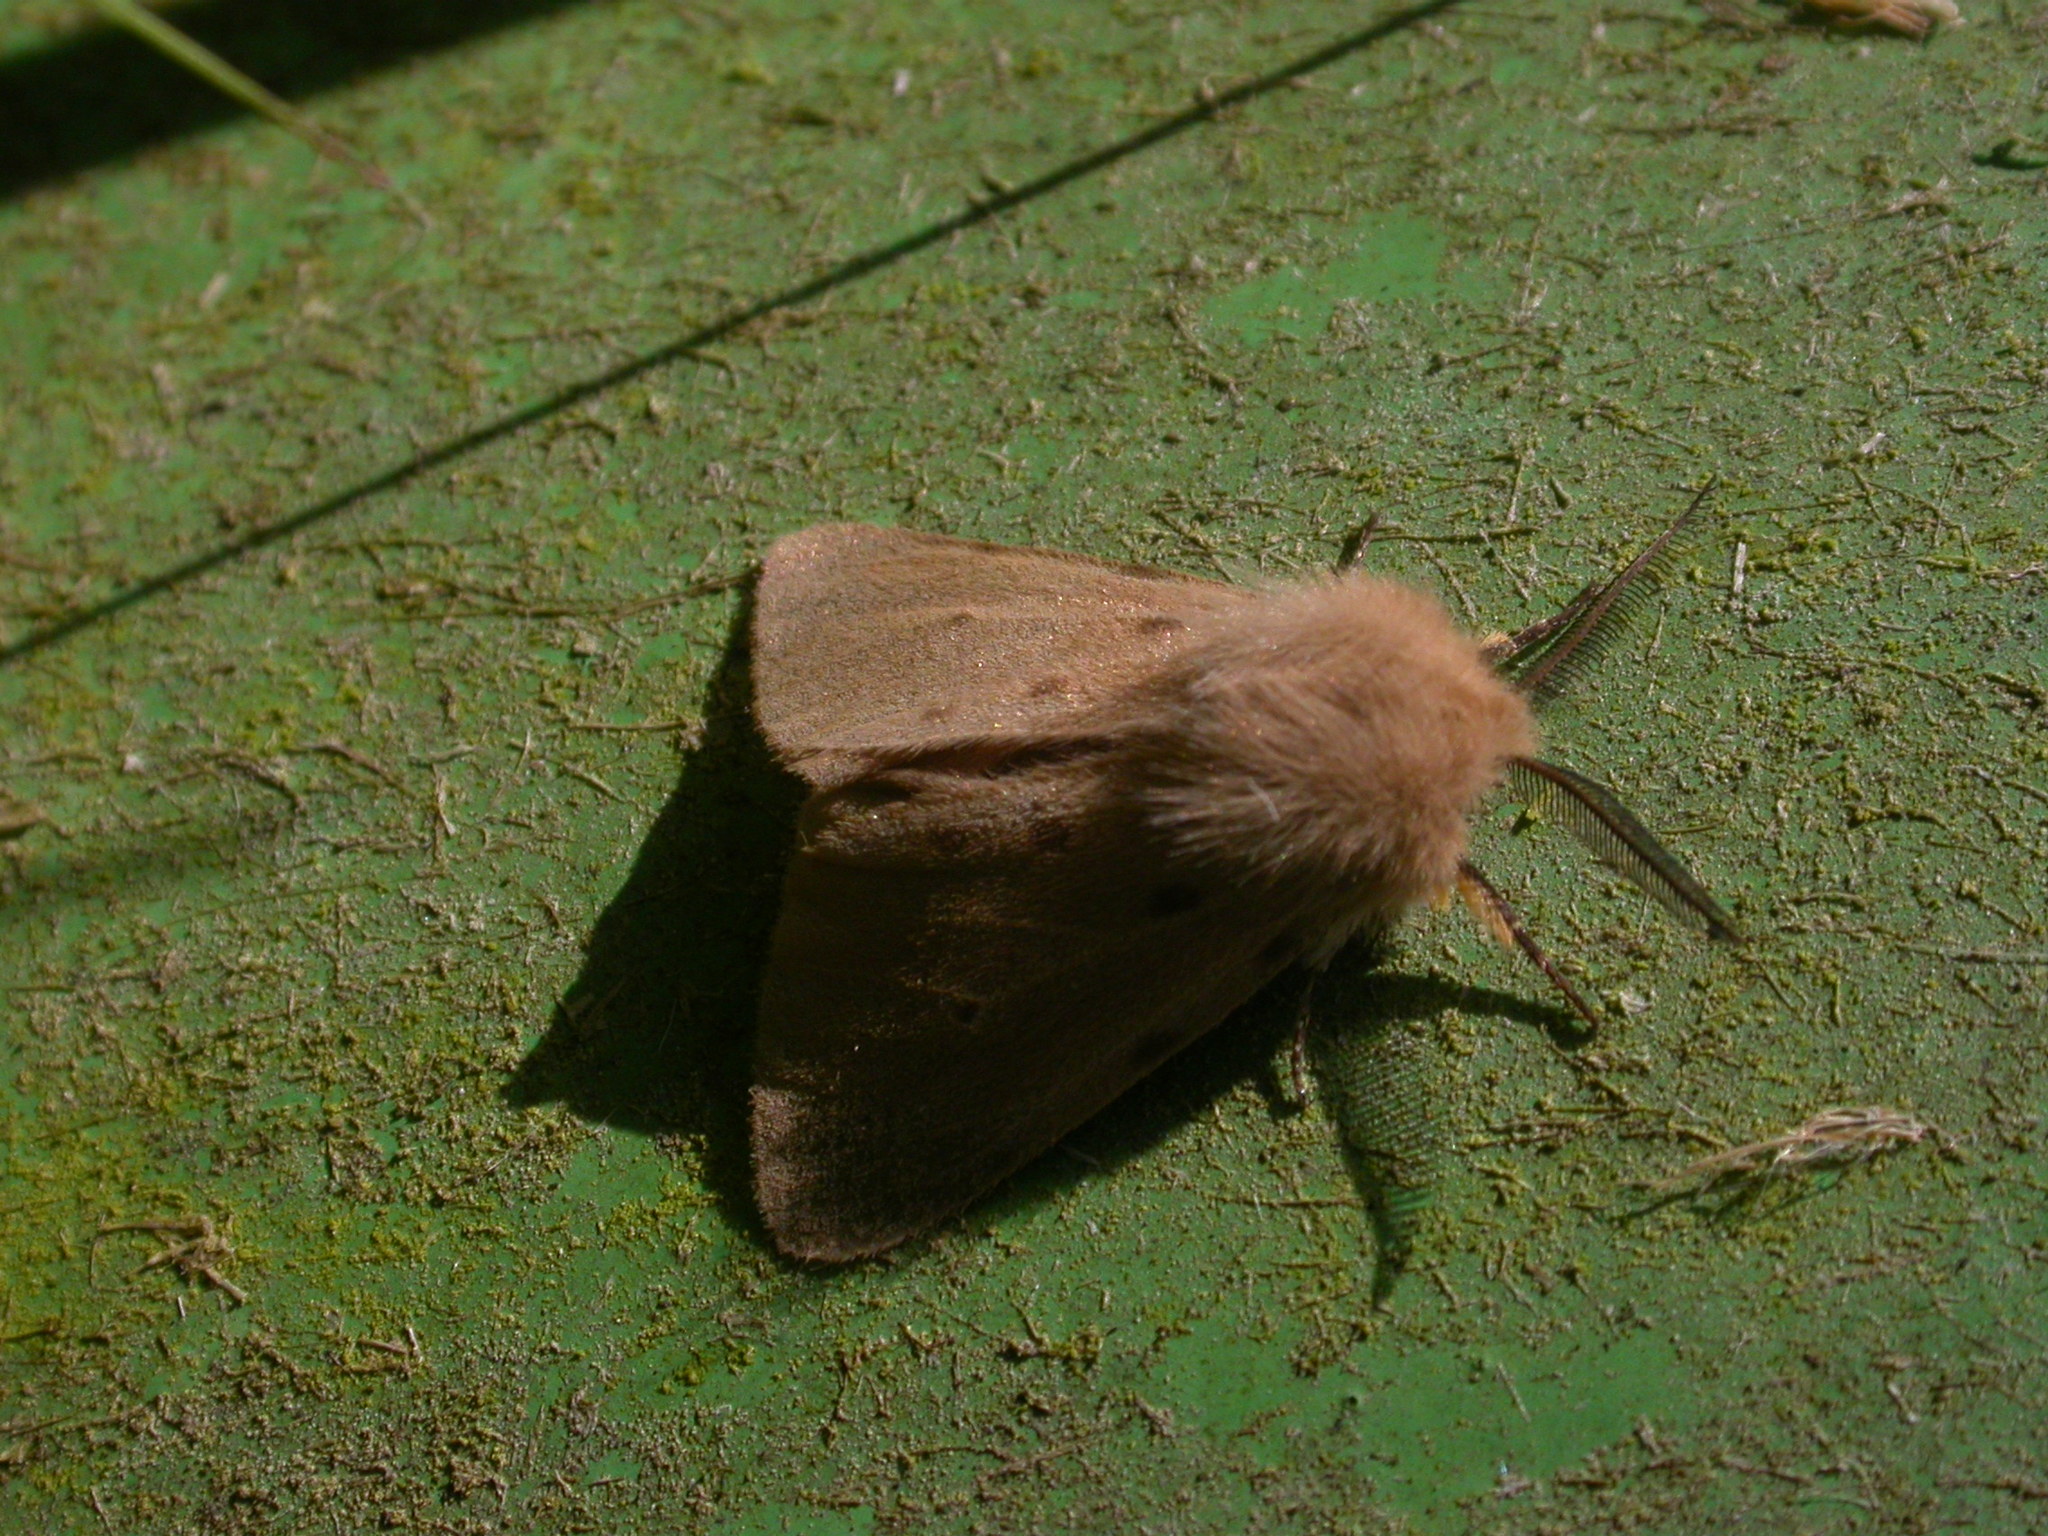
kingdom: Animalia
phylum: Arthropoda
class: Insecta
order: Lepidoptera
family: Erebidae
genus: Diaphora
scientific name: Diaphora mendica
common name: Muslin moth
